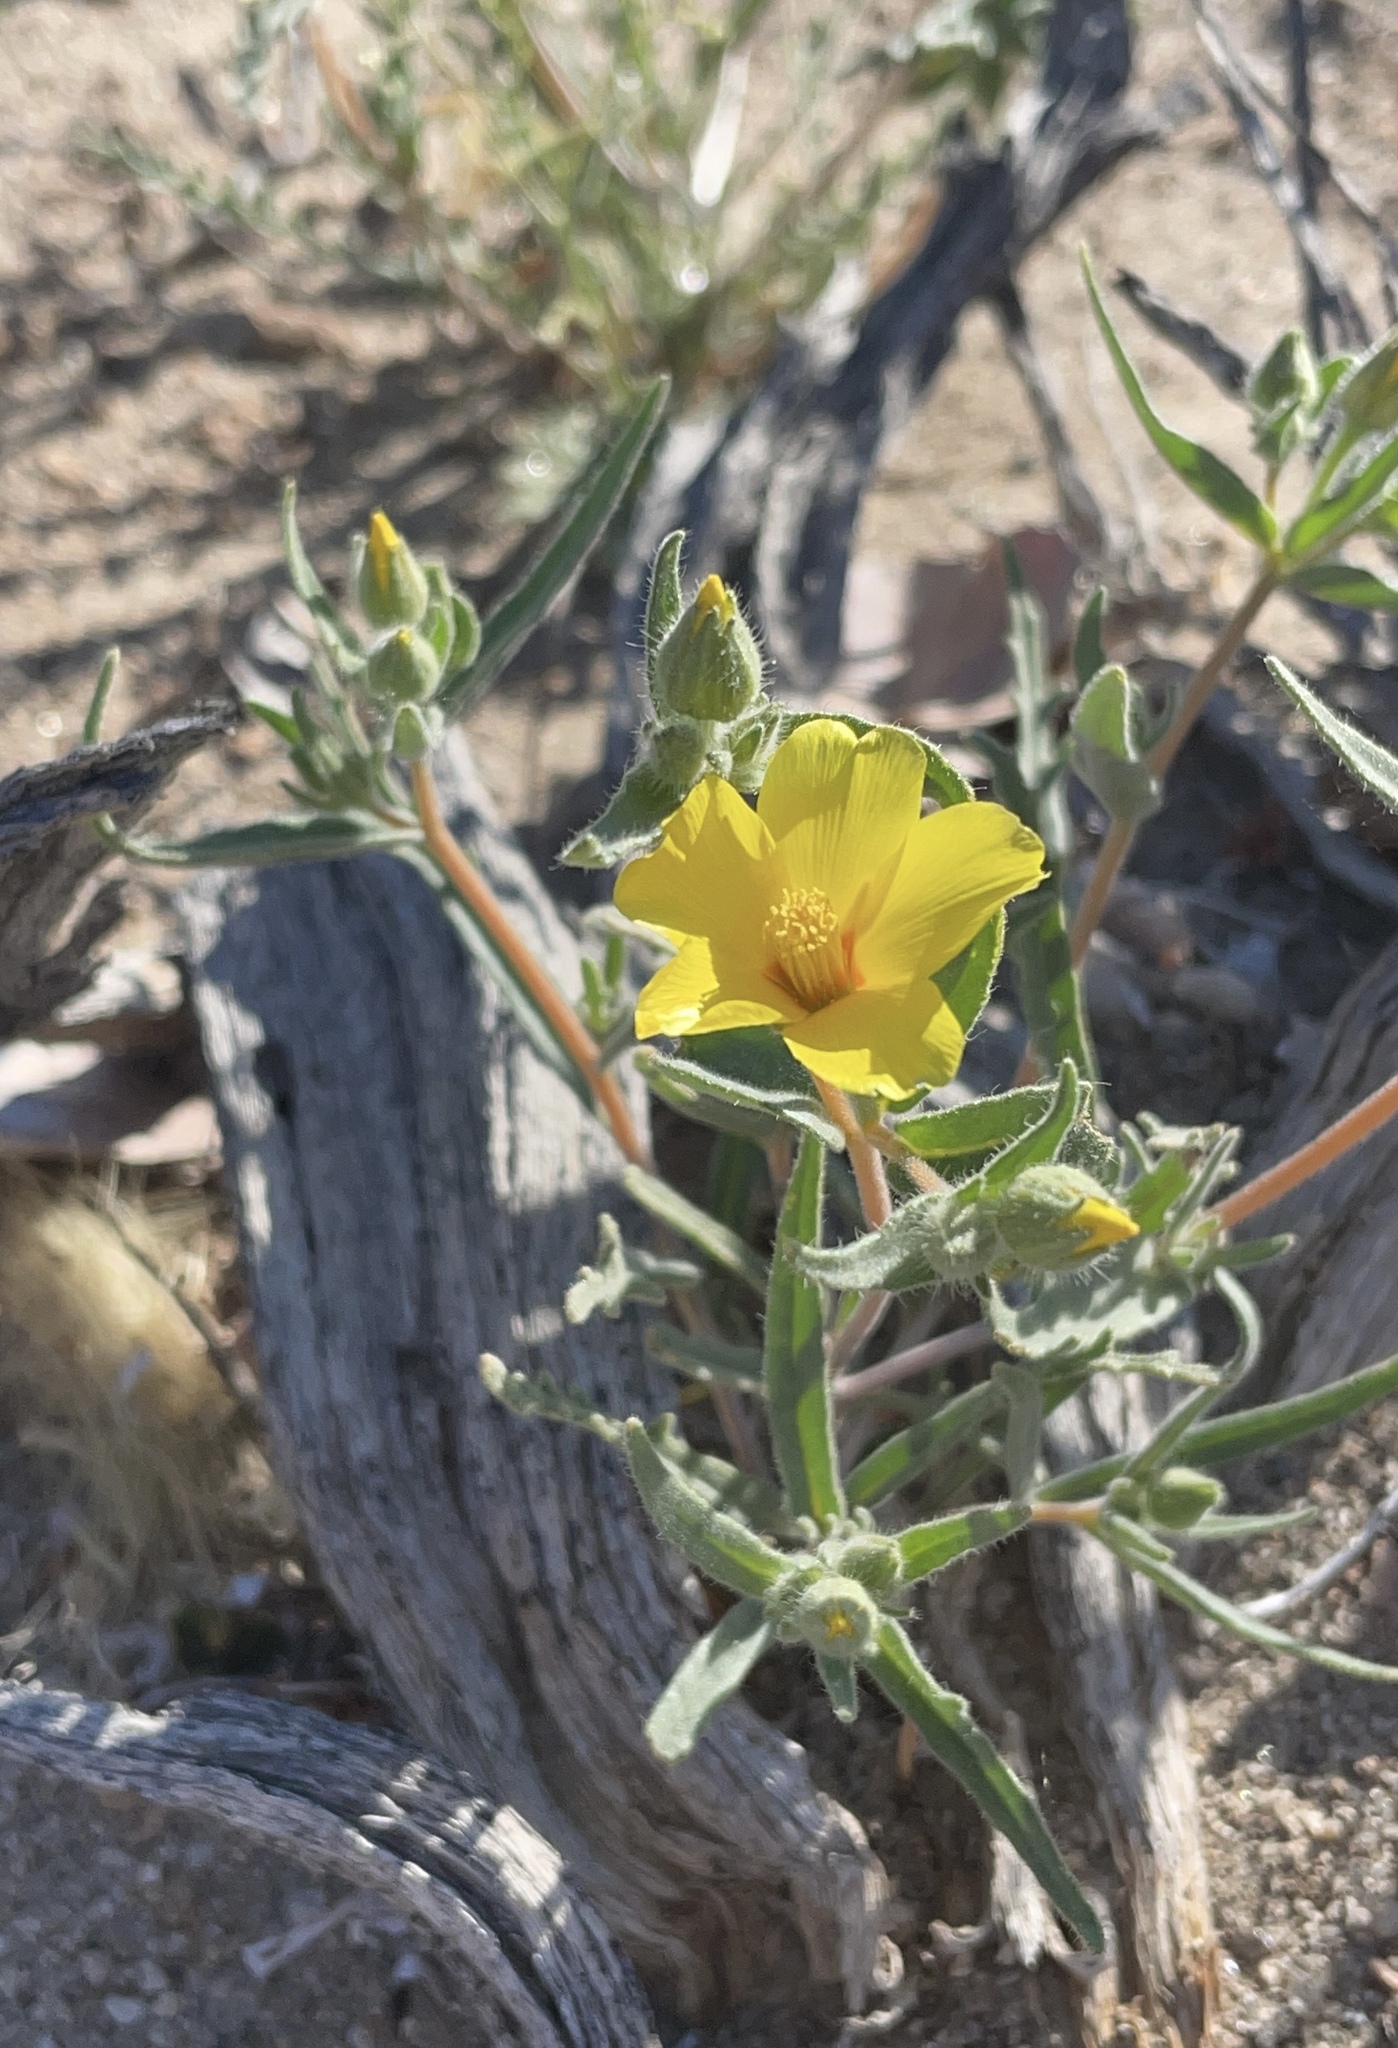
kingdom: Plantae
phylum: Tracheophyta
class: Magnoliopsida
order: Cornales
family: Loasaceae
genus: Mentzelia
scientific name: Mentzelia nitens
